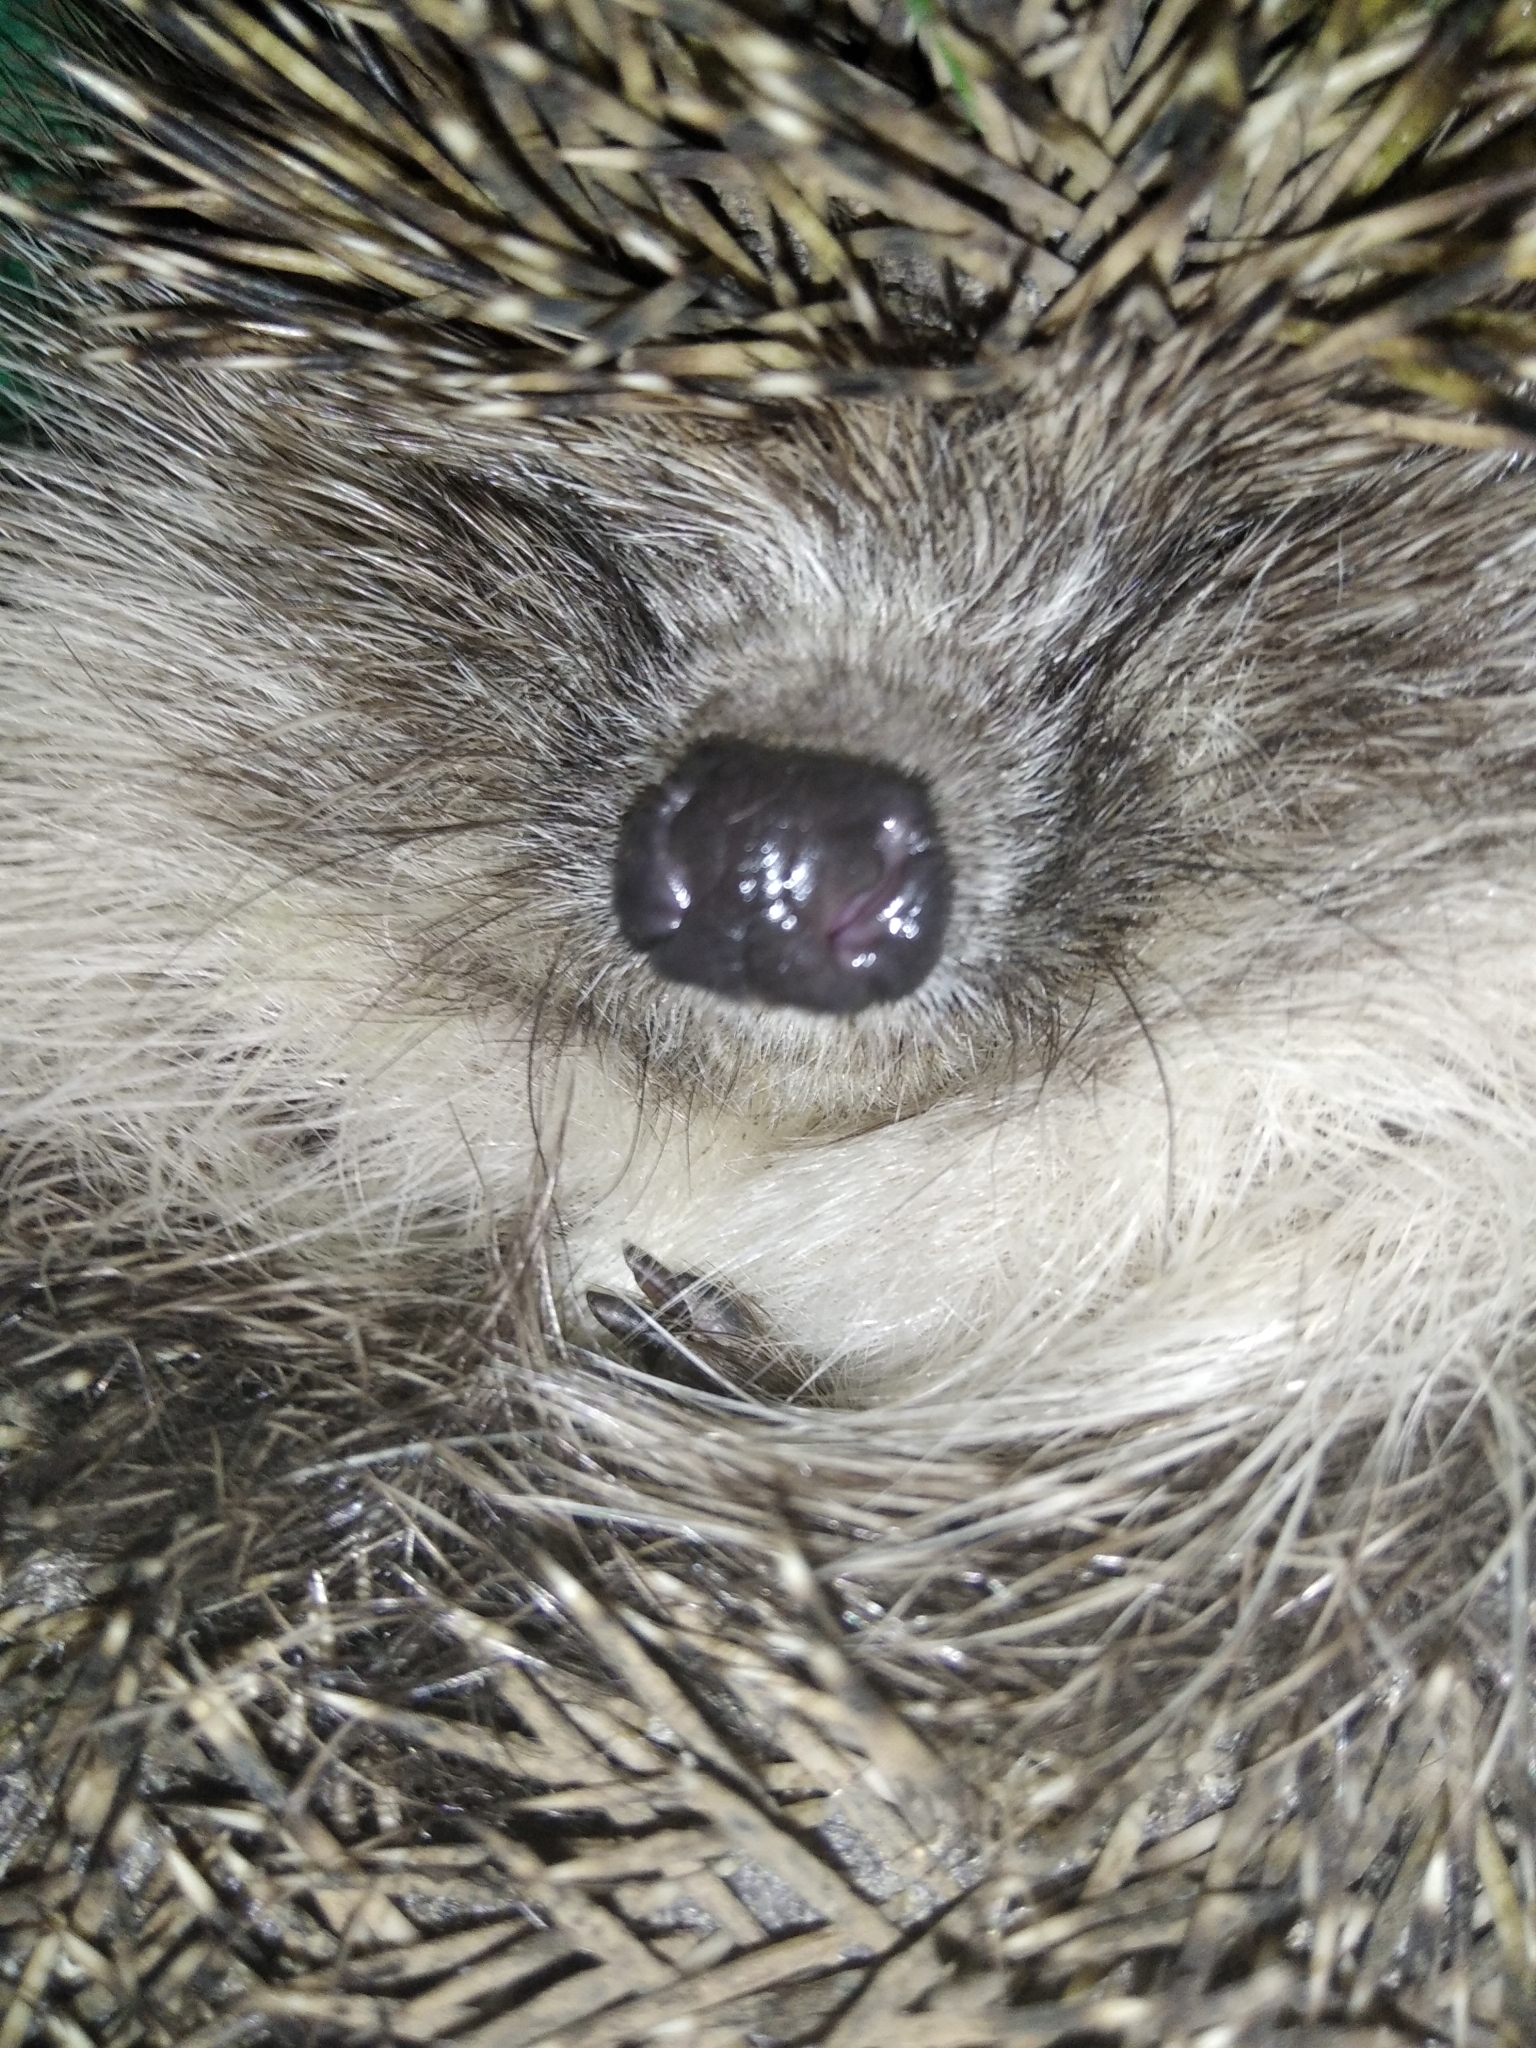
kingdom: Animalia
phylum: Chordata
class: Mammalia
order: Erinaceomorpha
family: Erinaceidae
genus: Erinaceus
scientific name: Erinaceus roumanicus
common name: Northern white-breasted hedgehog
